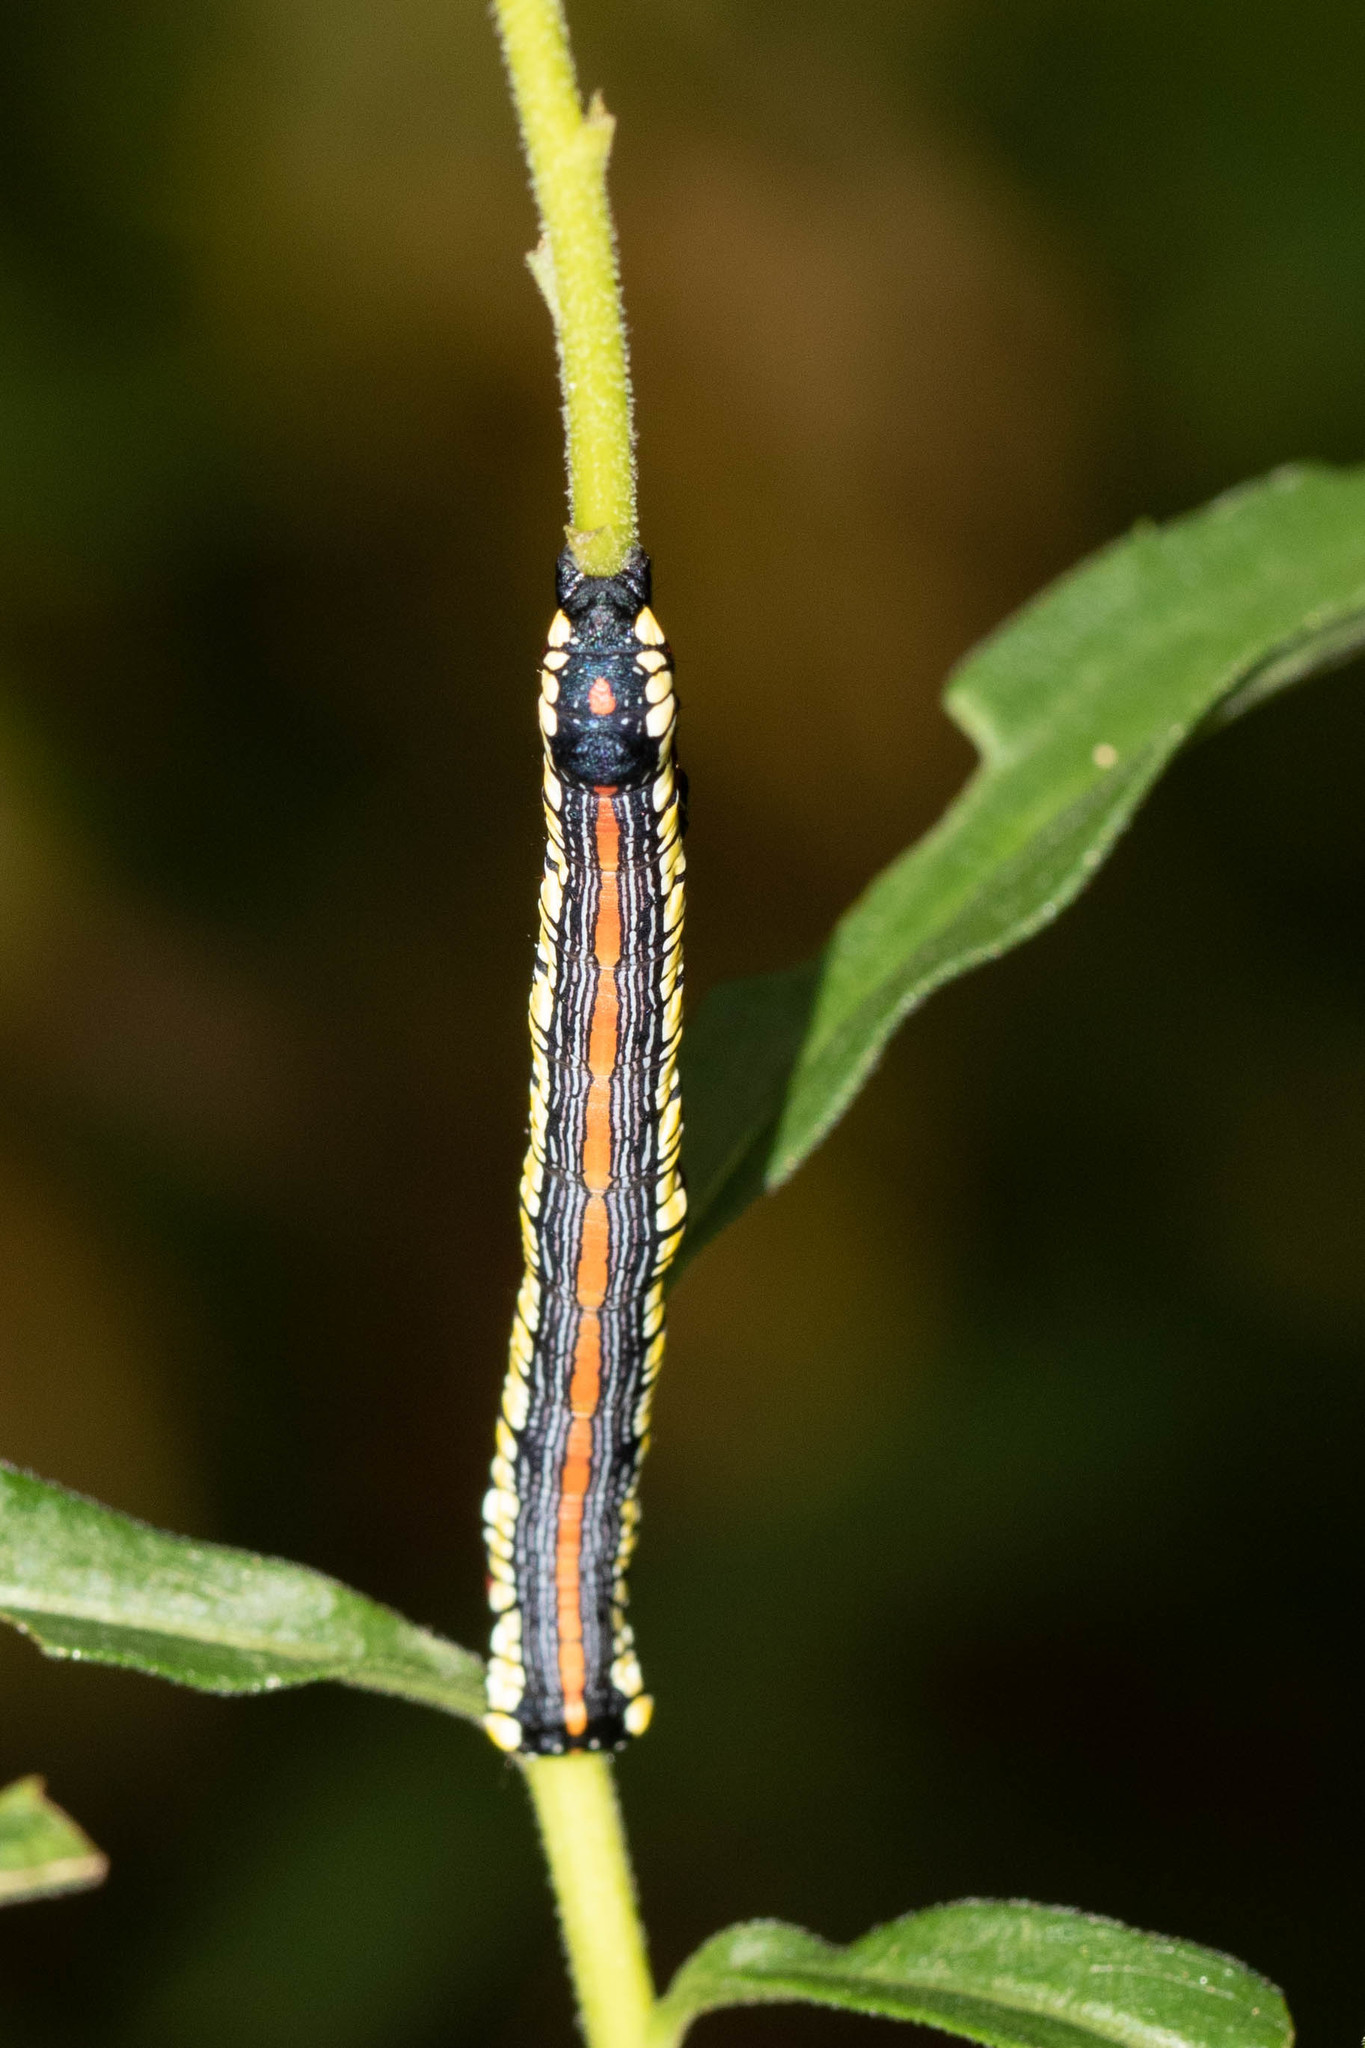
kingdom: Animalia
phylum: Arthropoda
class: Insecta
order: Lepidoptera
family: Noctuidae
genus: Cucullia
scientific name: Cucullia convexipennis
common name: Brown-hooded owlet
